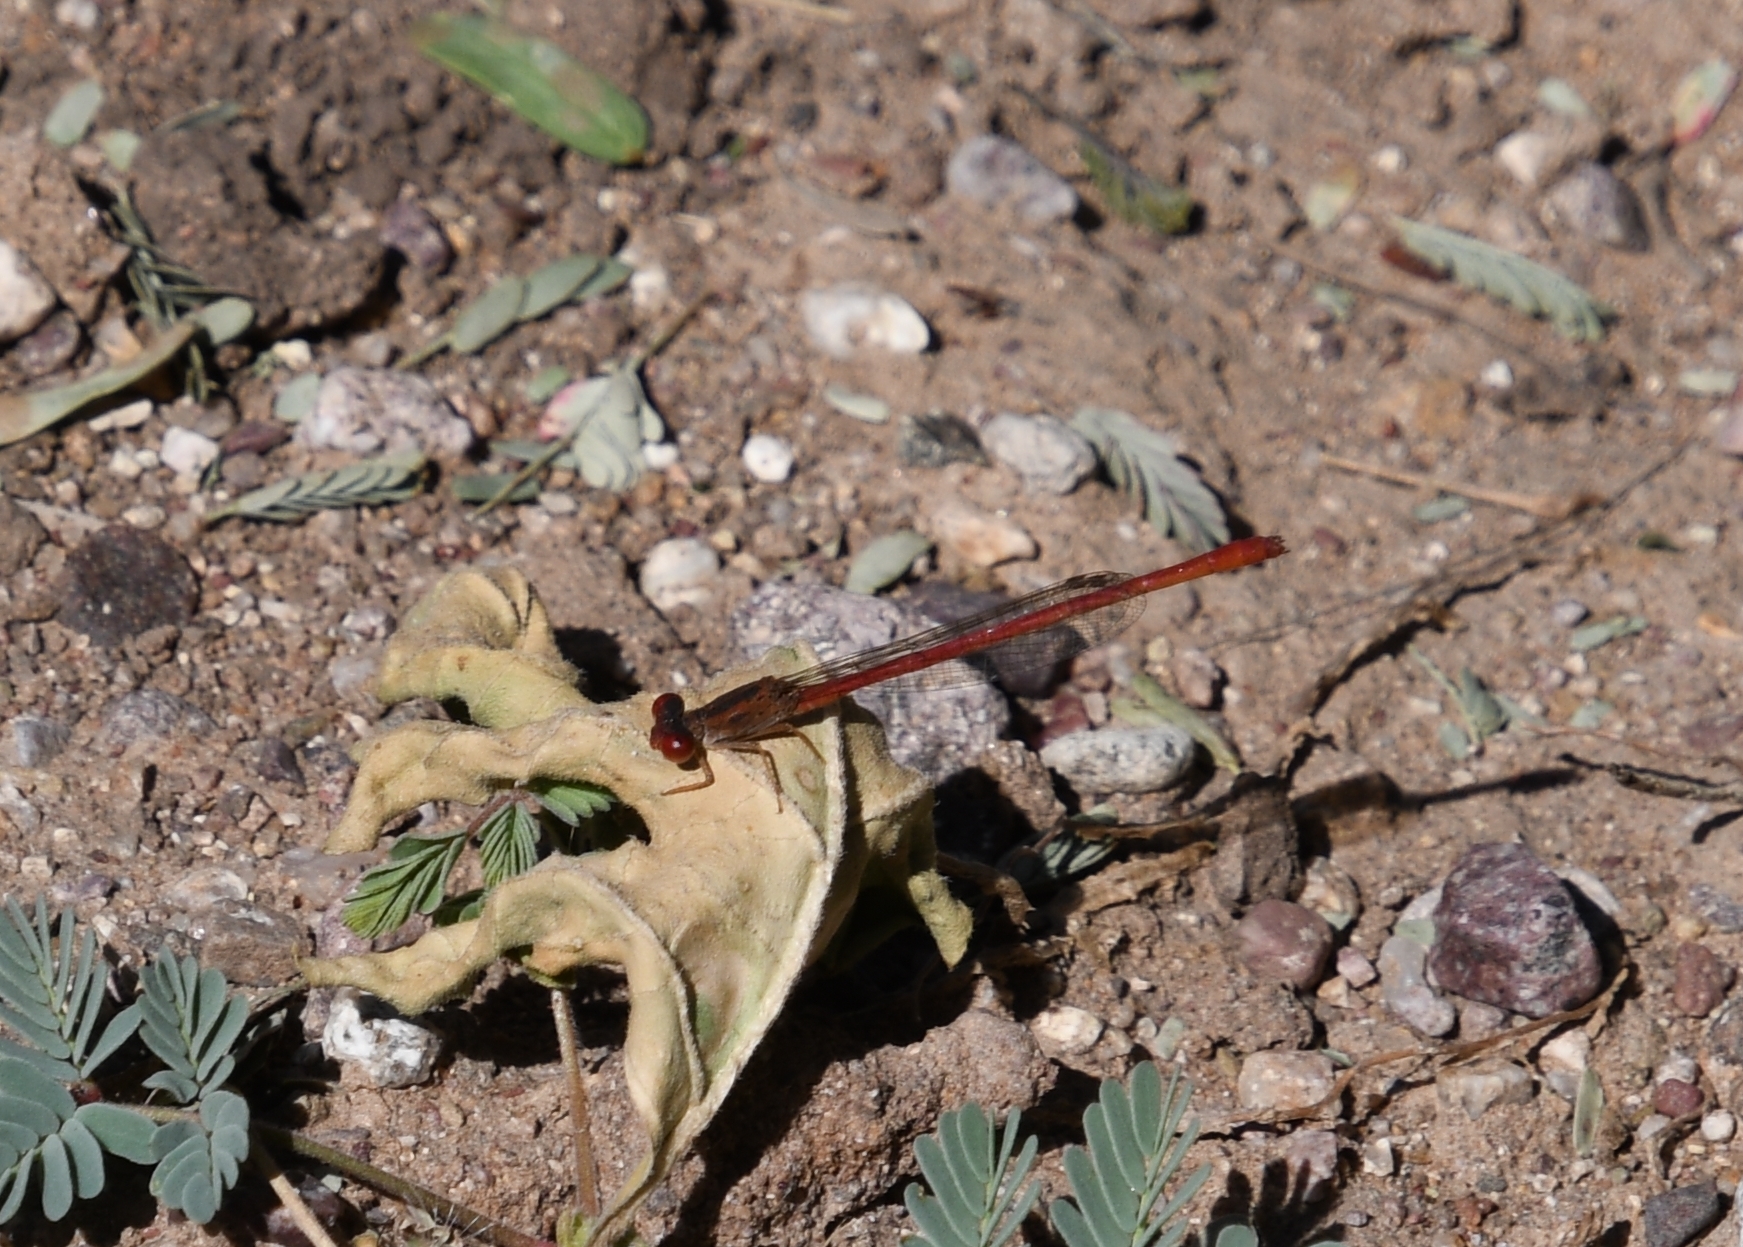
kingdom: Animalia
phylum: Arthropoda
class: Insecta
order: Odonata
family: Coenagrionidae
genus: Telebasis
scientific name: Telebasis salva
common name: Desert firetail
